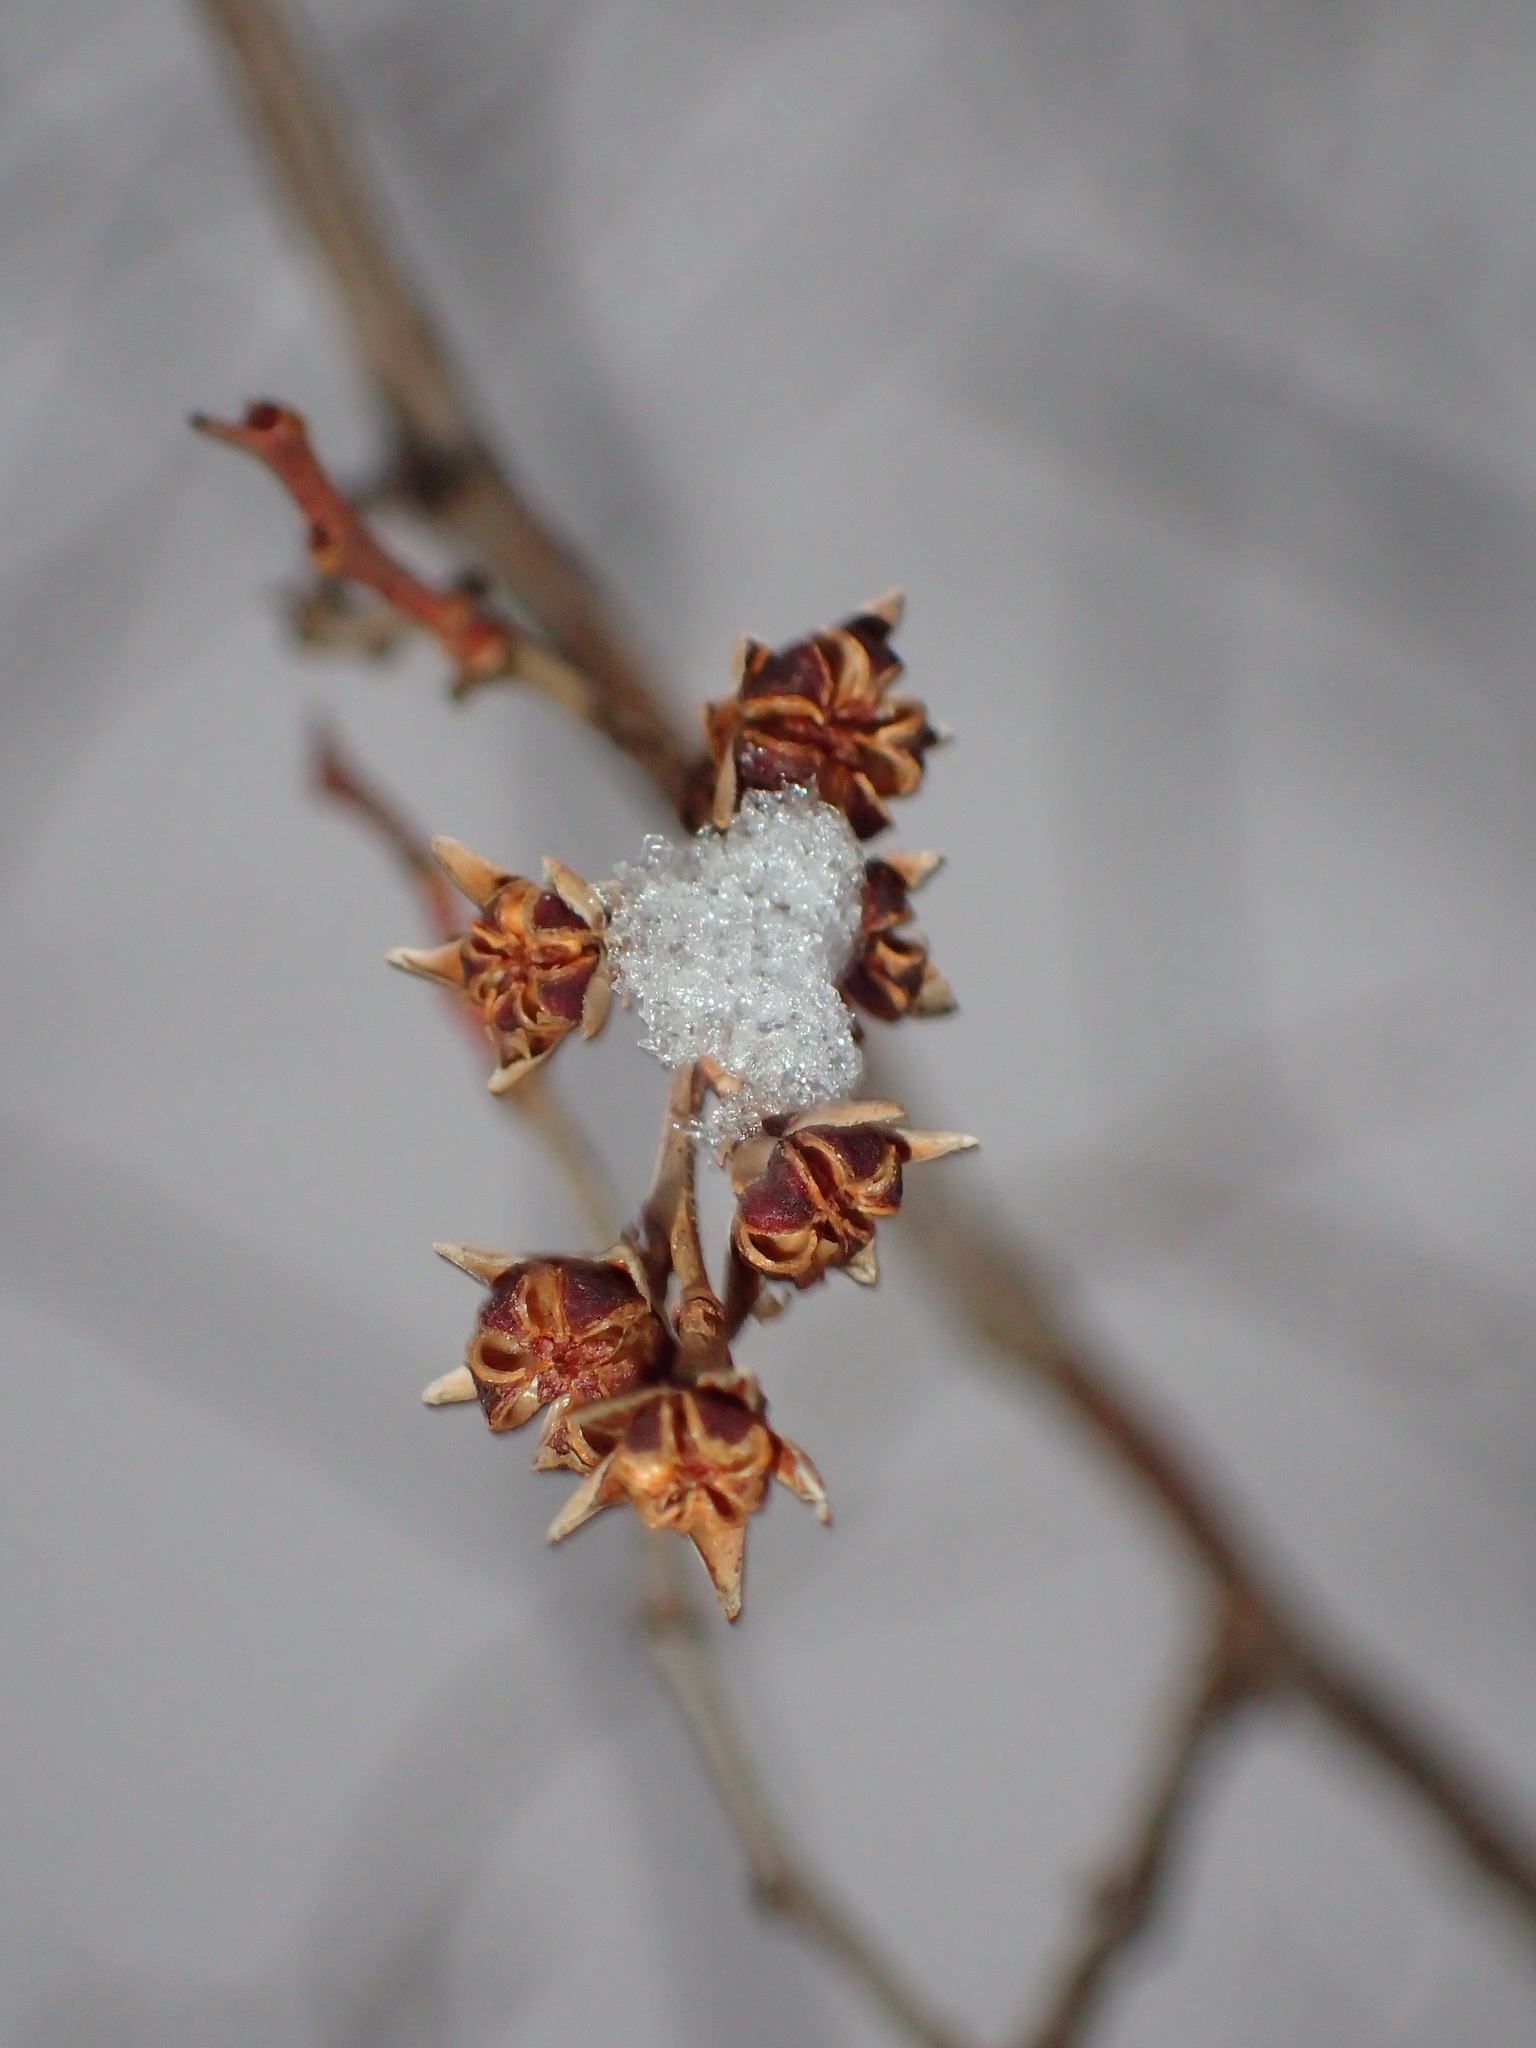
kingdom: Plantae
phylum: Tracheophyta
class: Magnoliopsida
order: Ericales
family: Ericaceae
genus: Eubotrys
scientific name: Eubotrys racemosa
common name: Fetterbush
